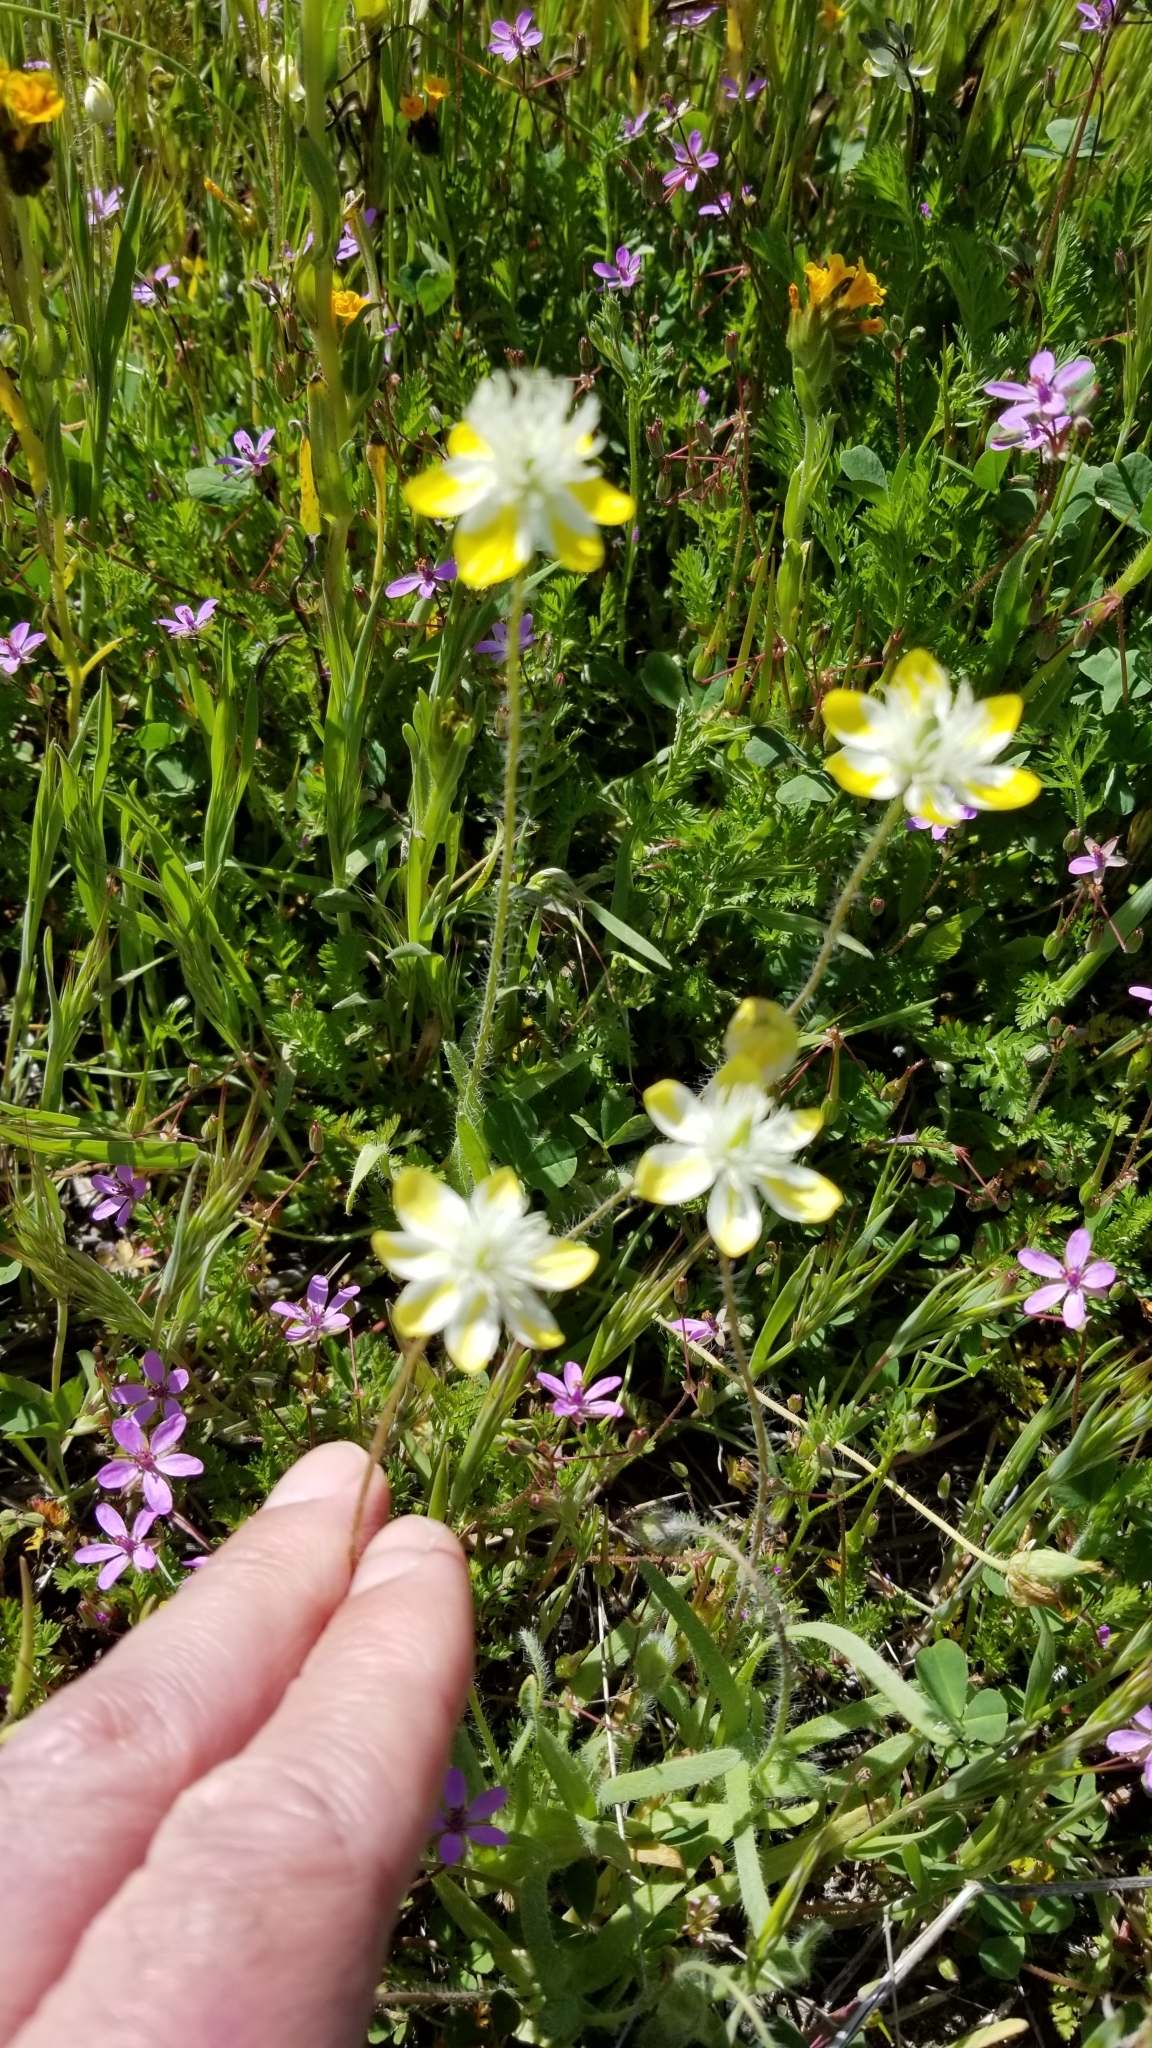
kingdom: Plantae
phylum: Tracheophyta
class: Magnoliopsida
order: Ranunculales
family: Papaveraceae
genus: Platystemon
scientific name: Platystemon californicus
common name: Cream-cups
